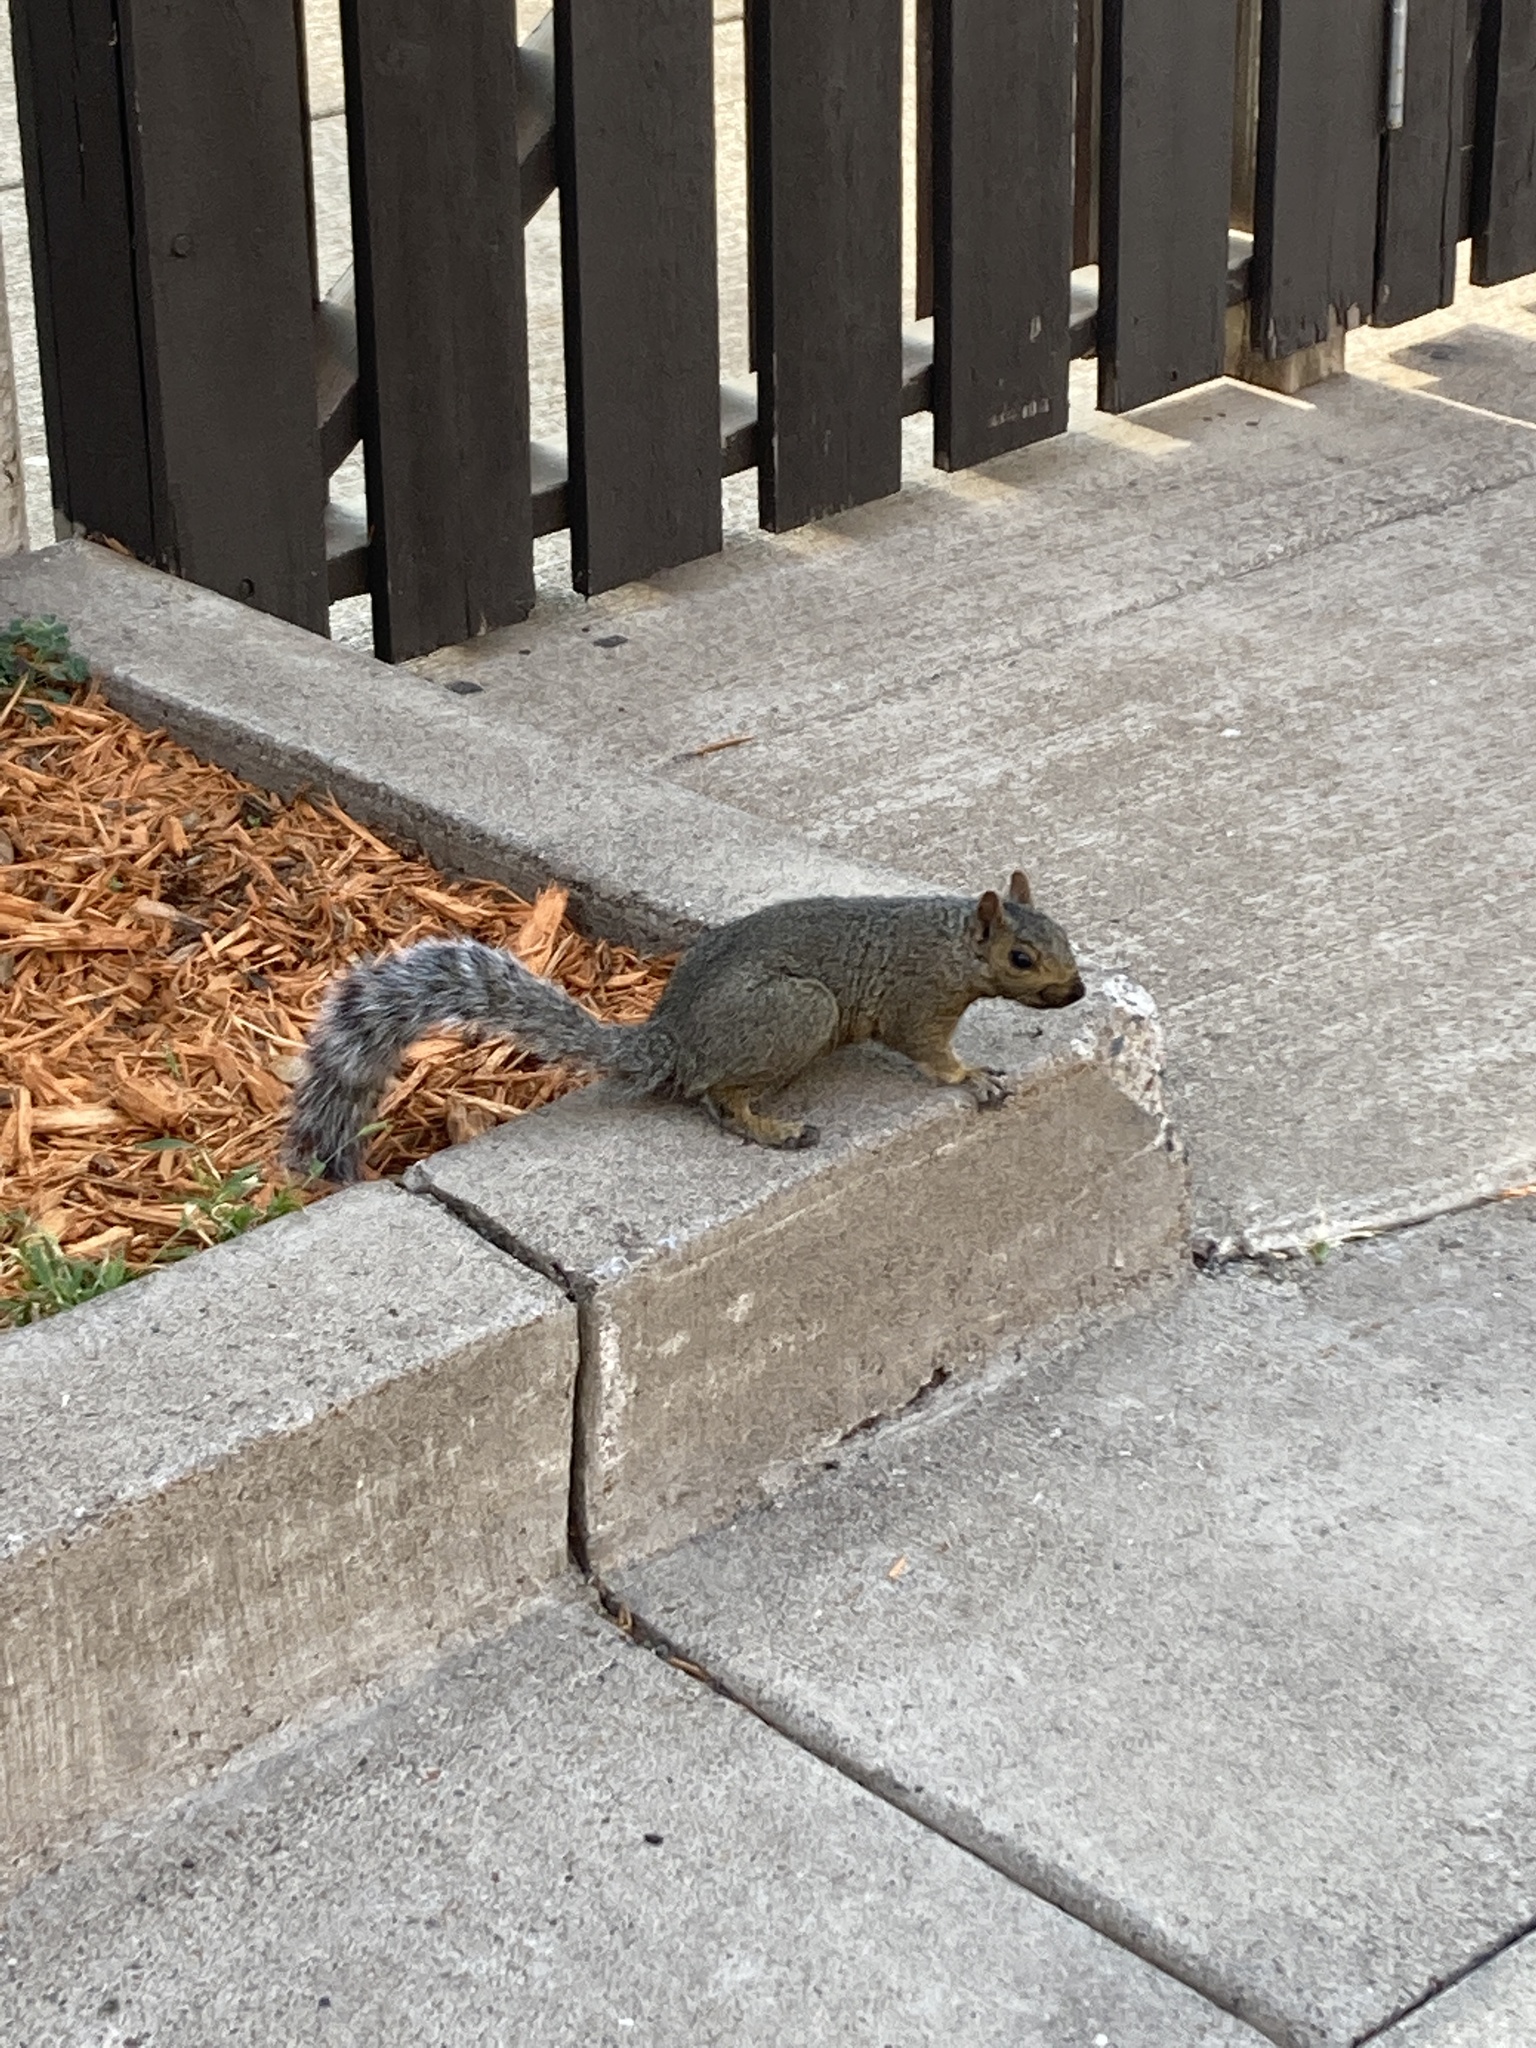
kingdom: Animalia
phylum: Chordata
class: Mammalia
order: Rodentia
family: Sciuridae
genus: Sciurus
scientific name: Sciurus carolinensis
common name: Eastern gray squirrel
